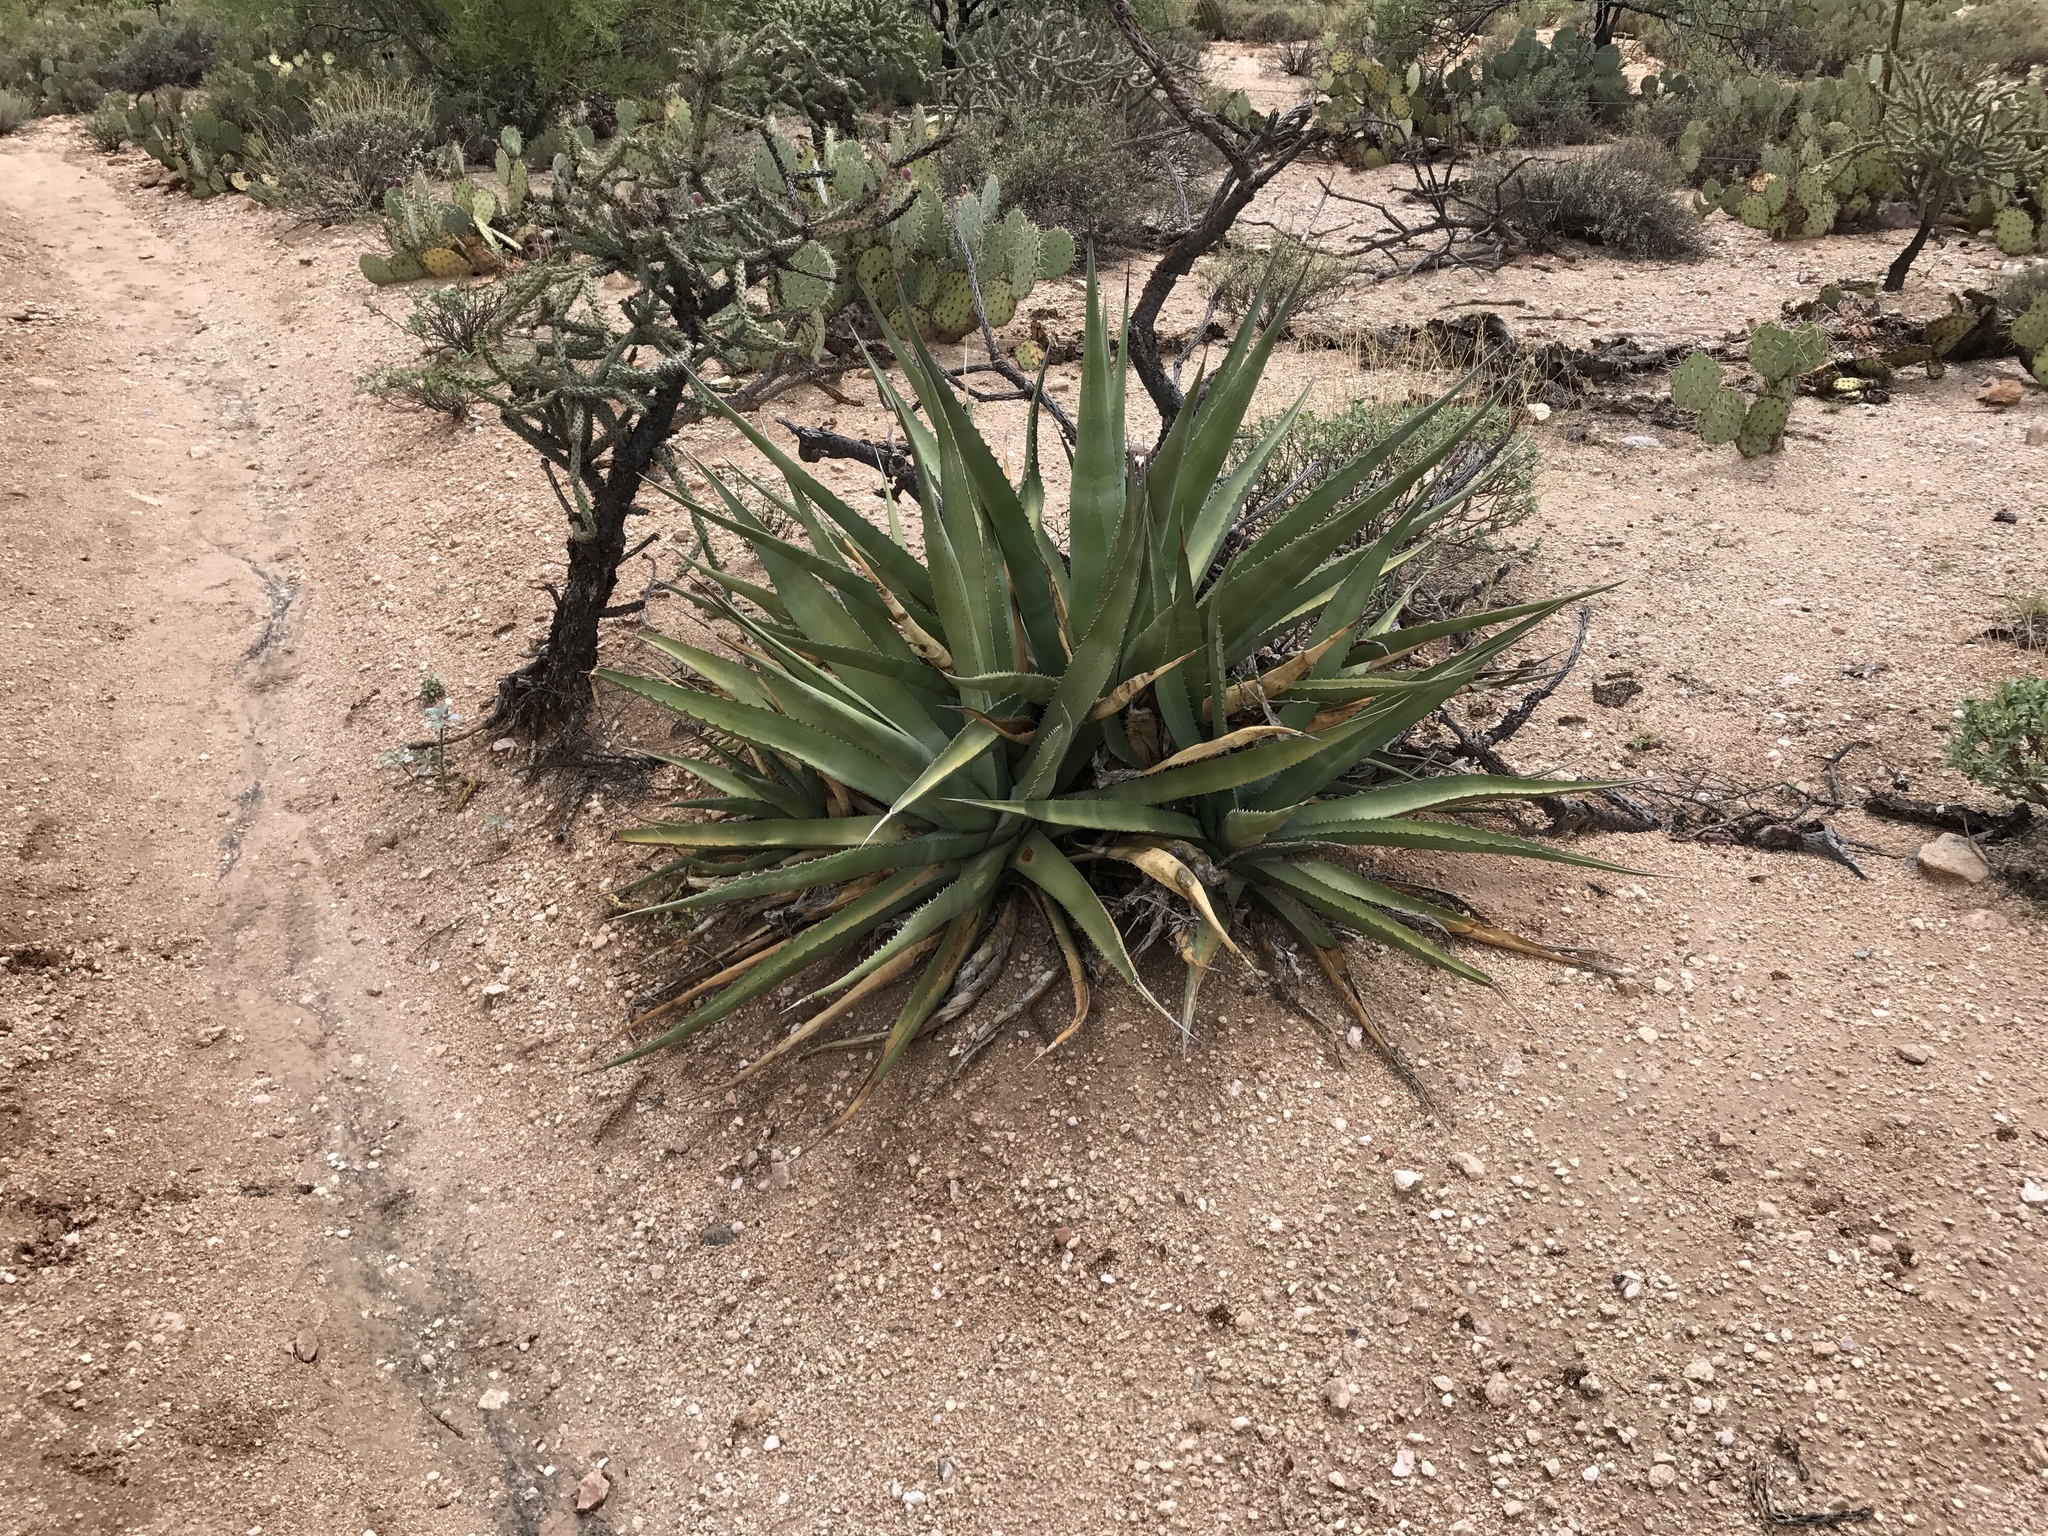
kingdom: Plantae
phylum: Tracheophyta
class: Liliopsida
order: Asparagales
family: Asparagaceae
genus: Agave
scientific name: Agave palmeri
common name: Palmer agave
